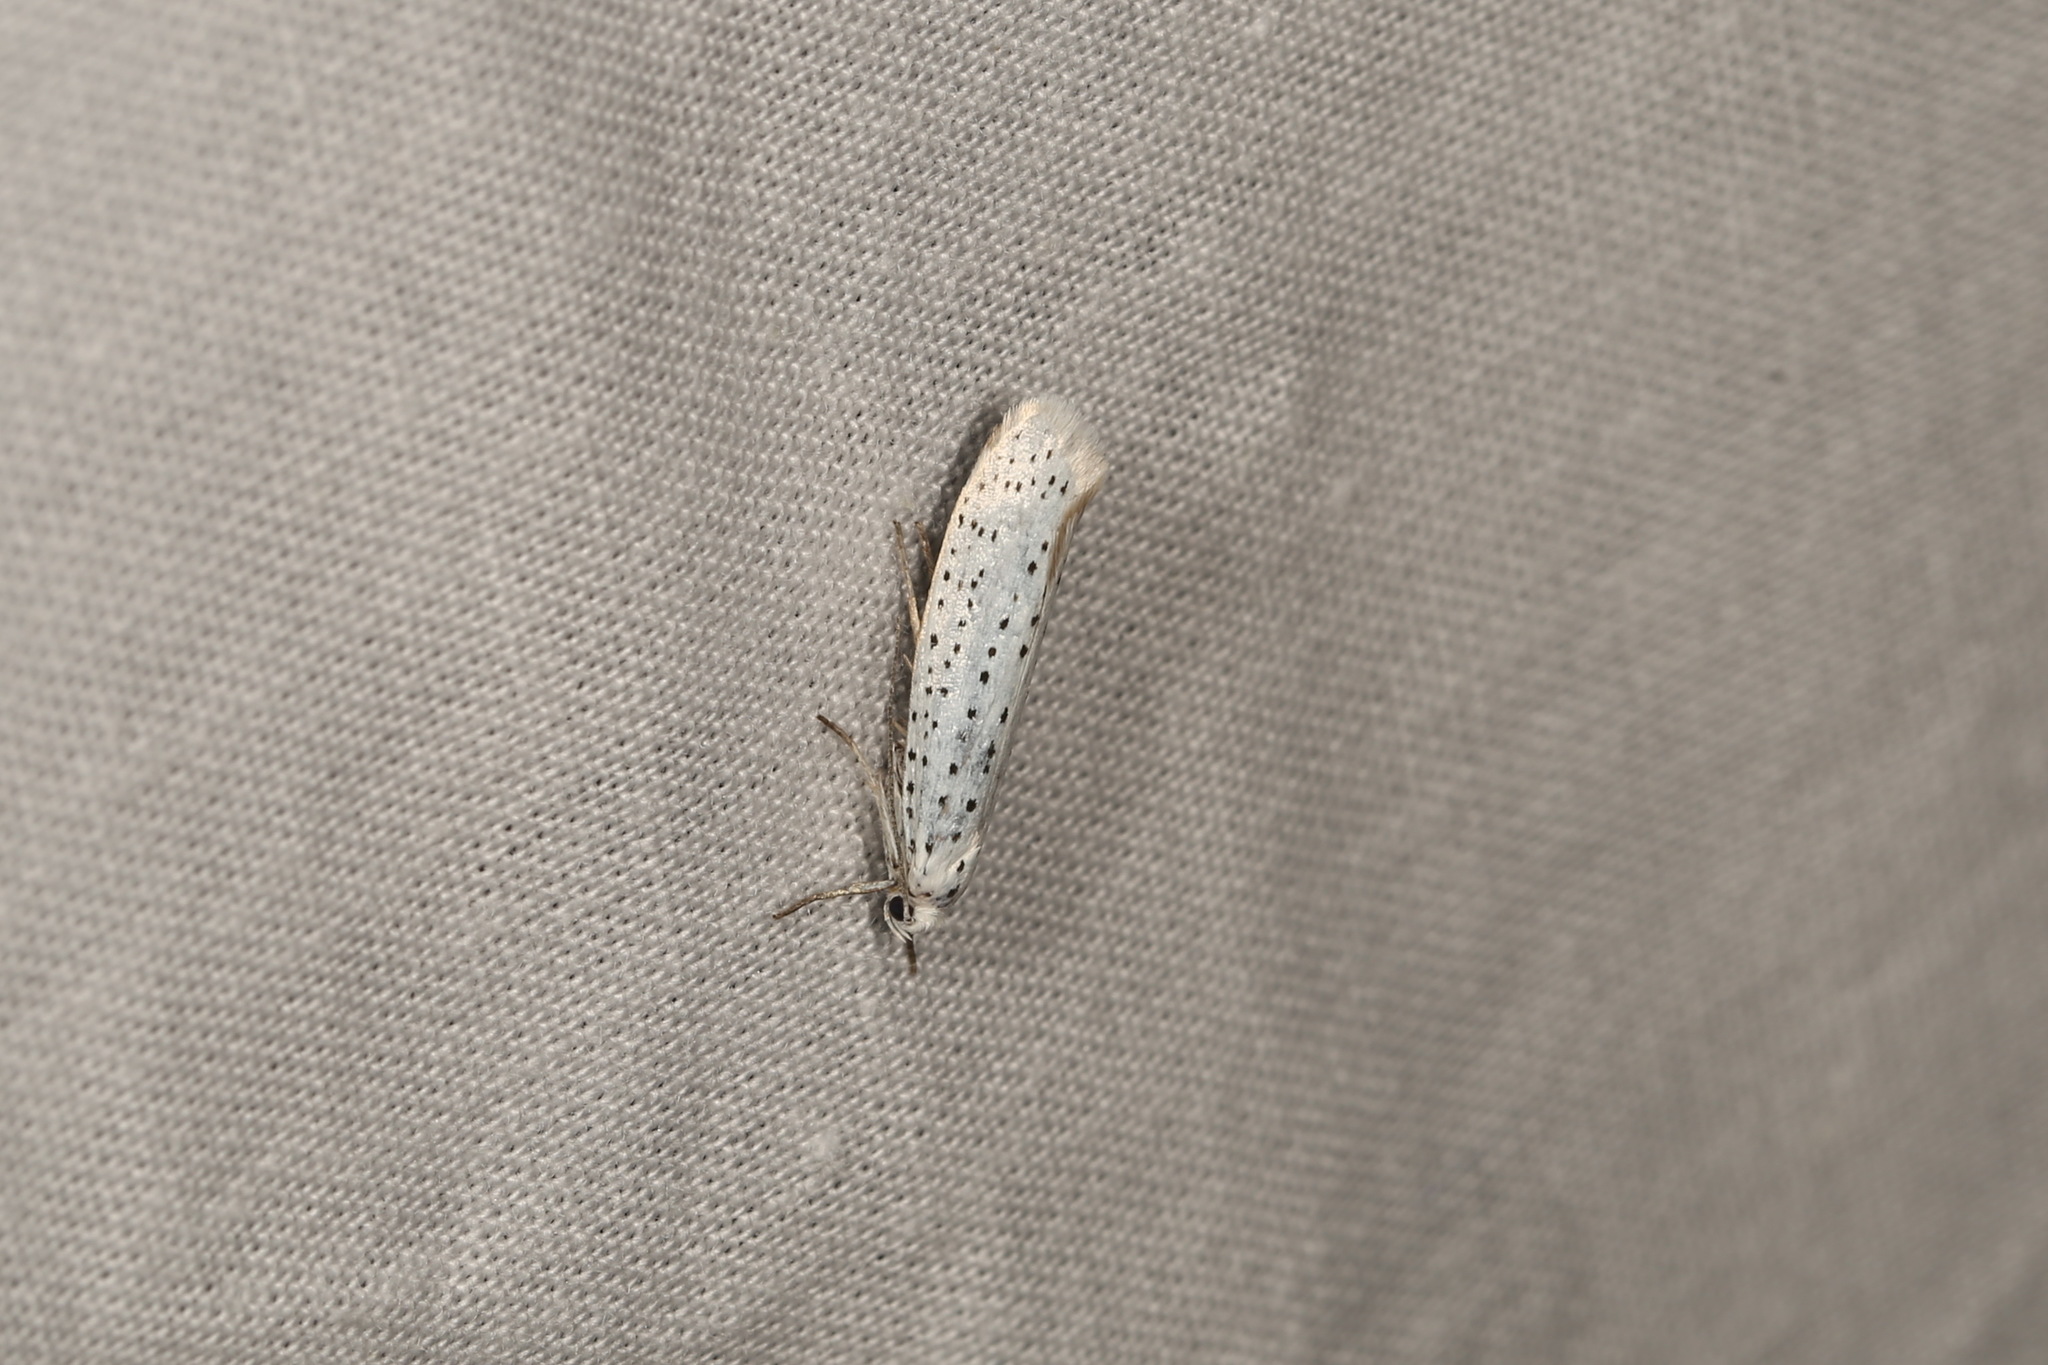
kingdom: Animalia
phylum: Arthropoda
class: Insecta
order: Lepidoptera
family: Yponomeutidae
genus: Yponomeuta
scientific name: Yponomeuta evonymella
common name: Bird-cherry ermine
